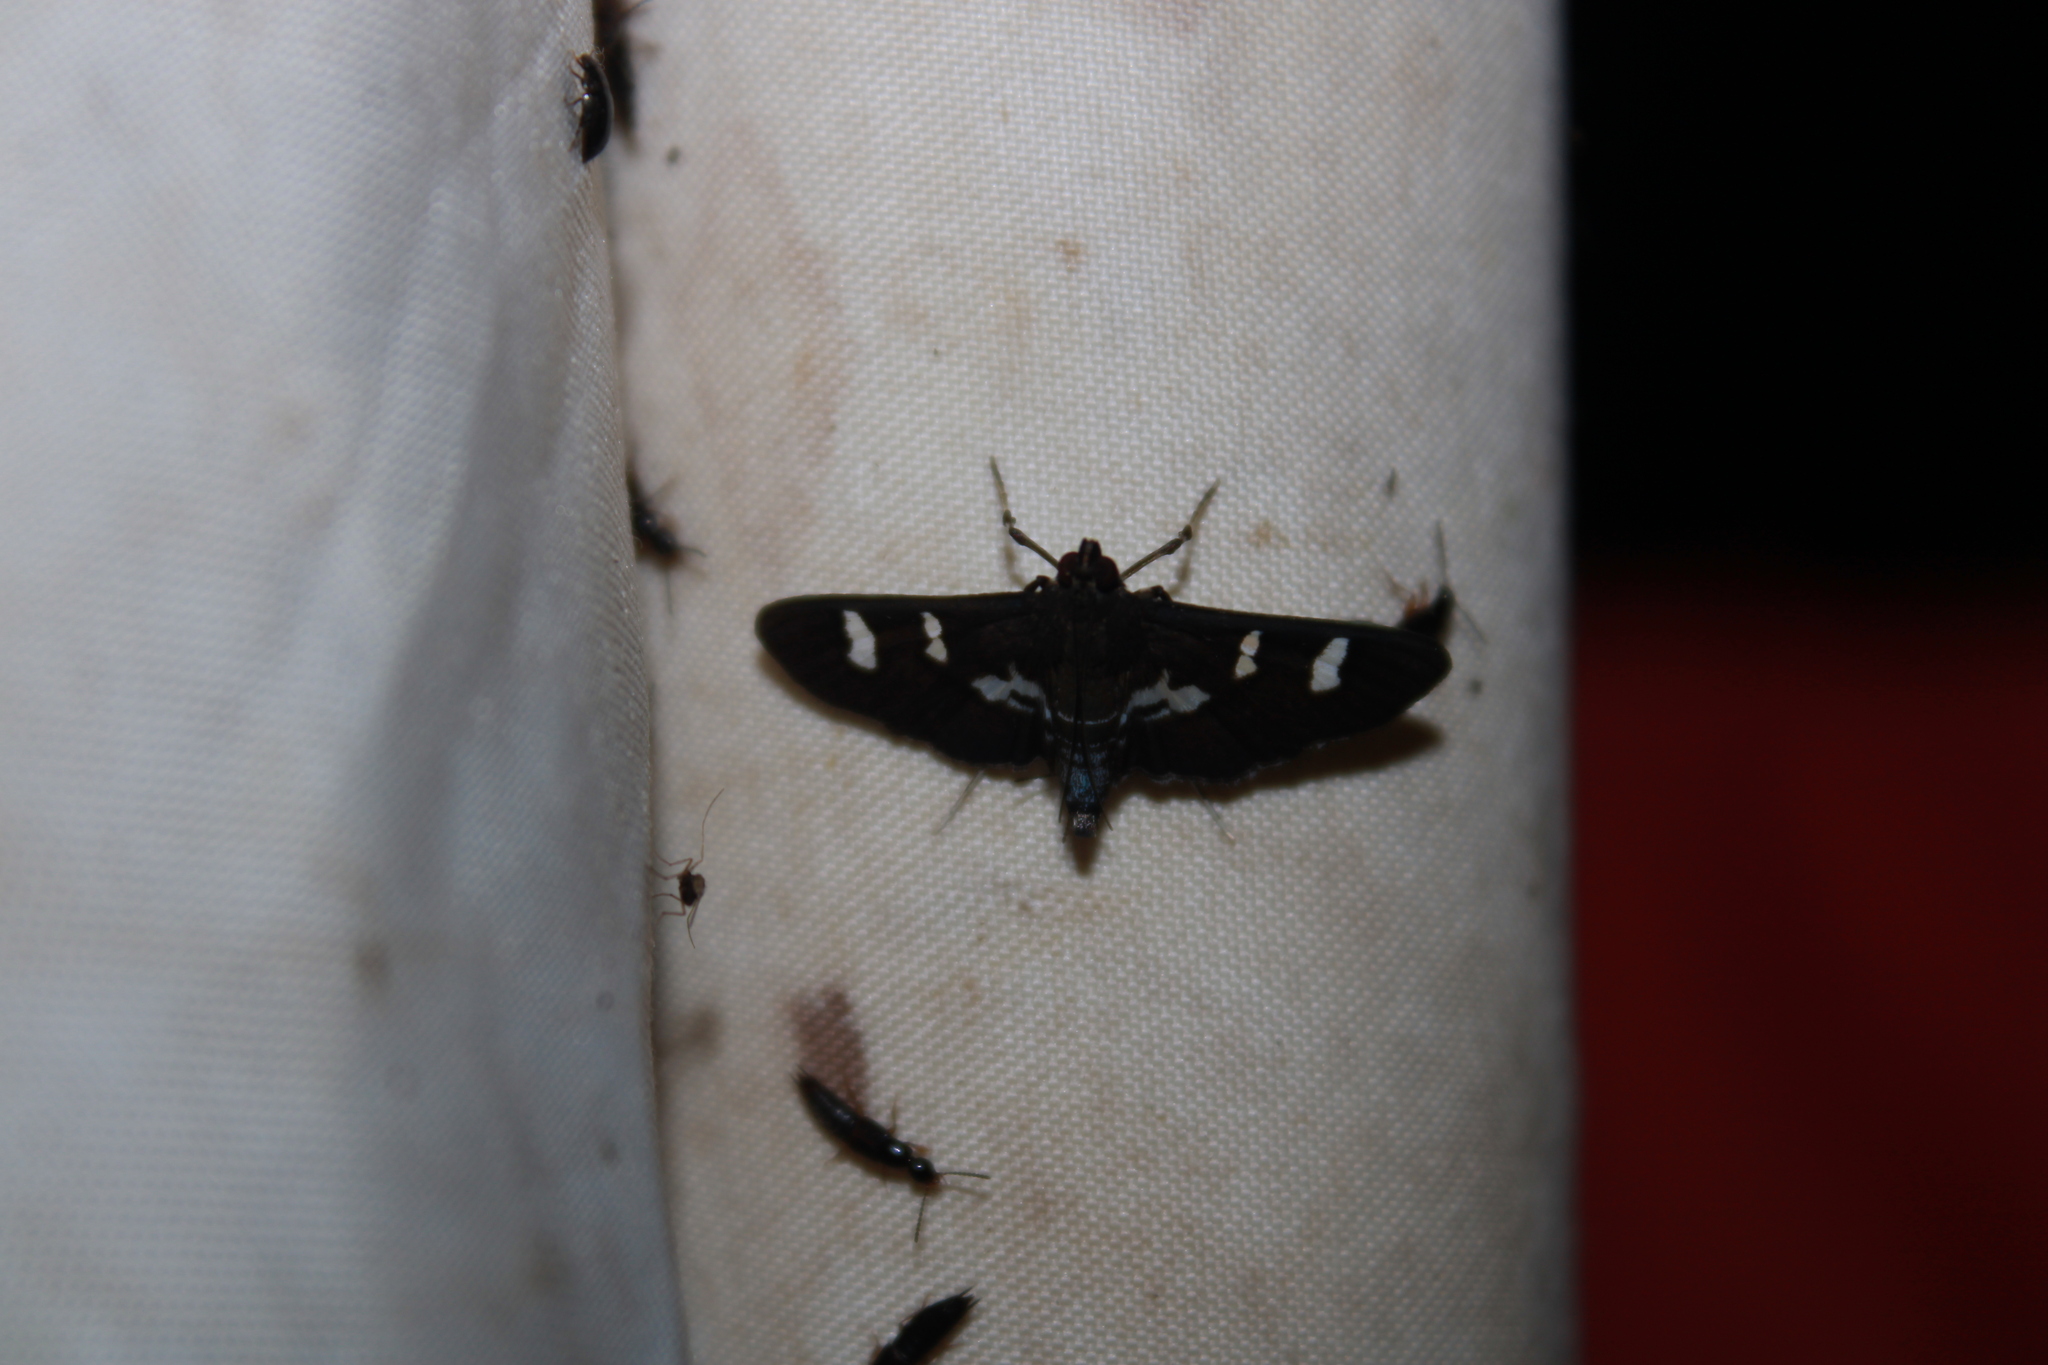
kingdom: Animalia
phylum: Arthropoda
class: Insecta
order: Lepidoptera
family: Crambidae
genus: Desmia
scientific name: Desmia deploralis
